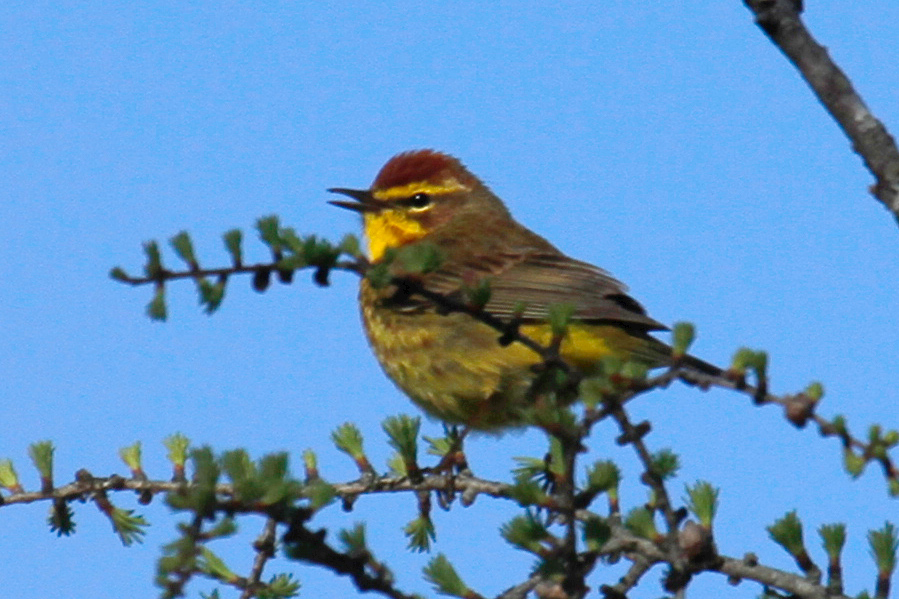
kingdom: Animalia
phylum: Chordata
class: Aves
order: Passeriformes
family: Parulidae
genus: Setophaga
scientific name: Setophaga palmarum
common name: Palm warbler
